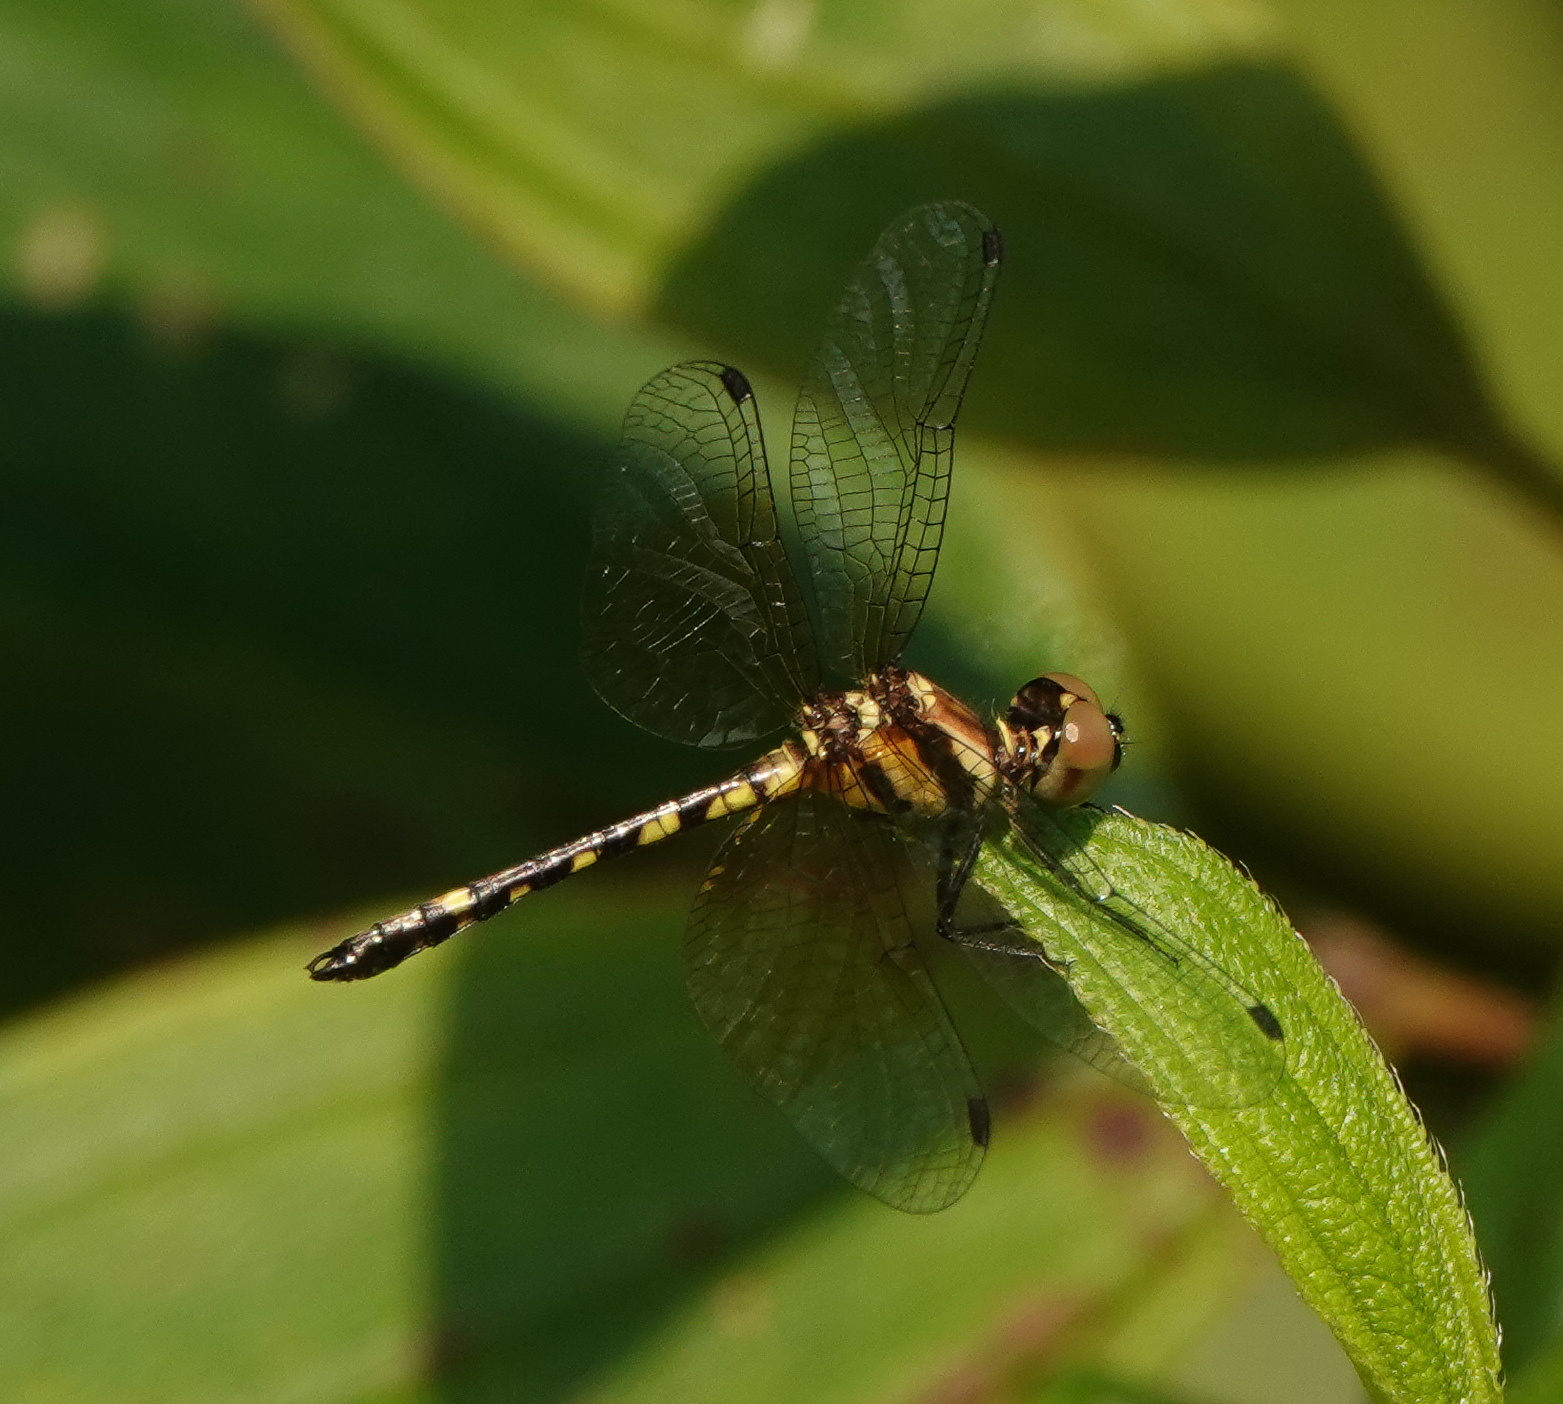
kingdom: Animalia
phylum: Arthropoda
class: Insecta
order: Odonata
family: Libellulidae
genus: Tetrathemis
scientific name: Tetrathemis platyptera
